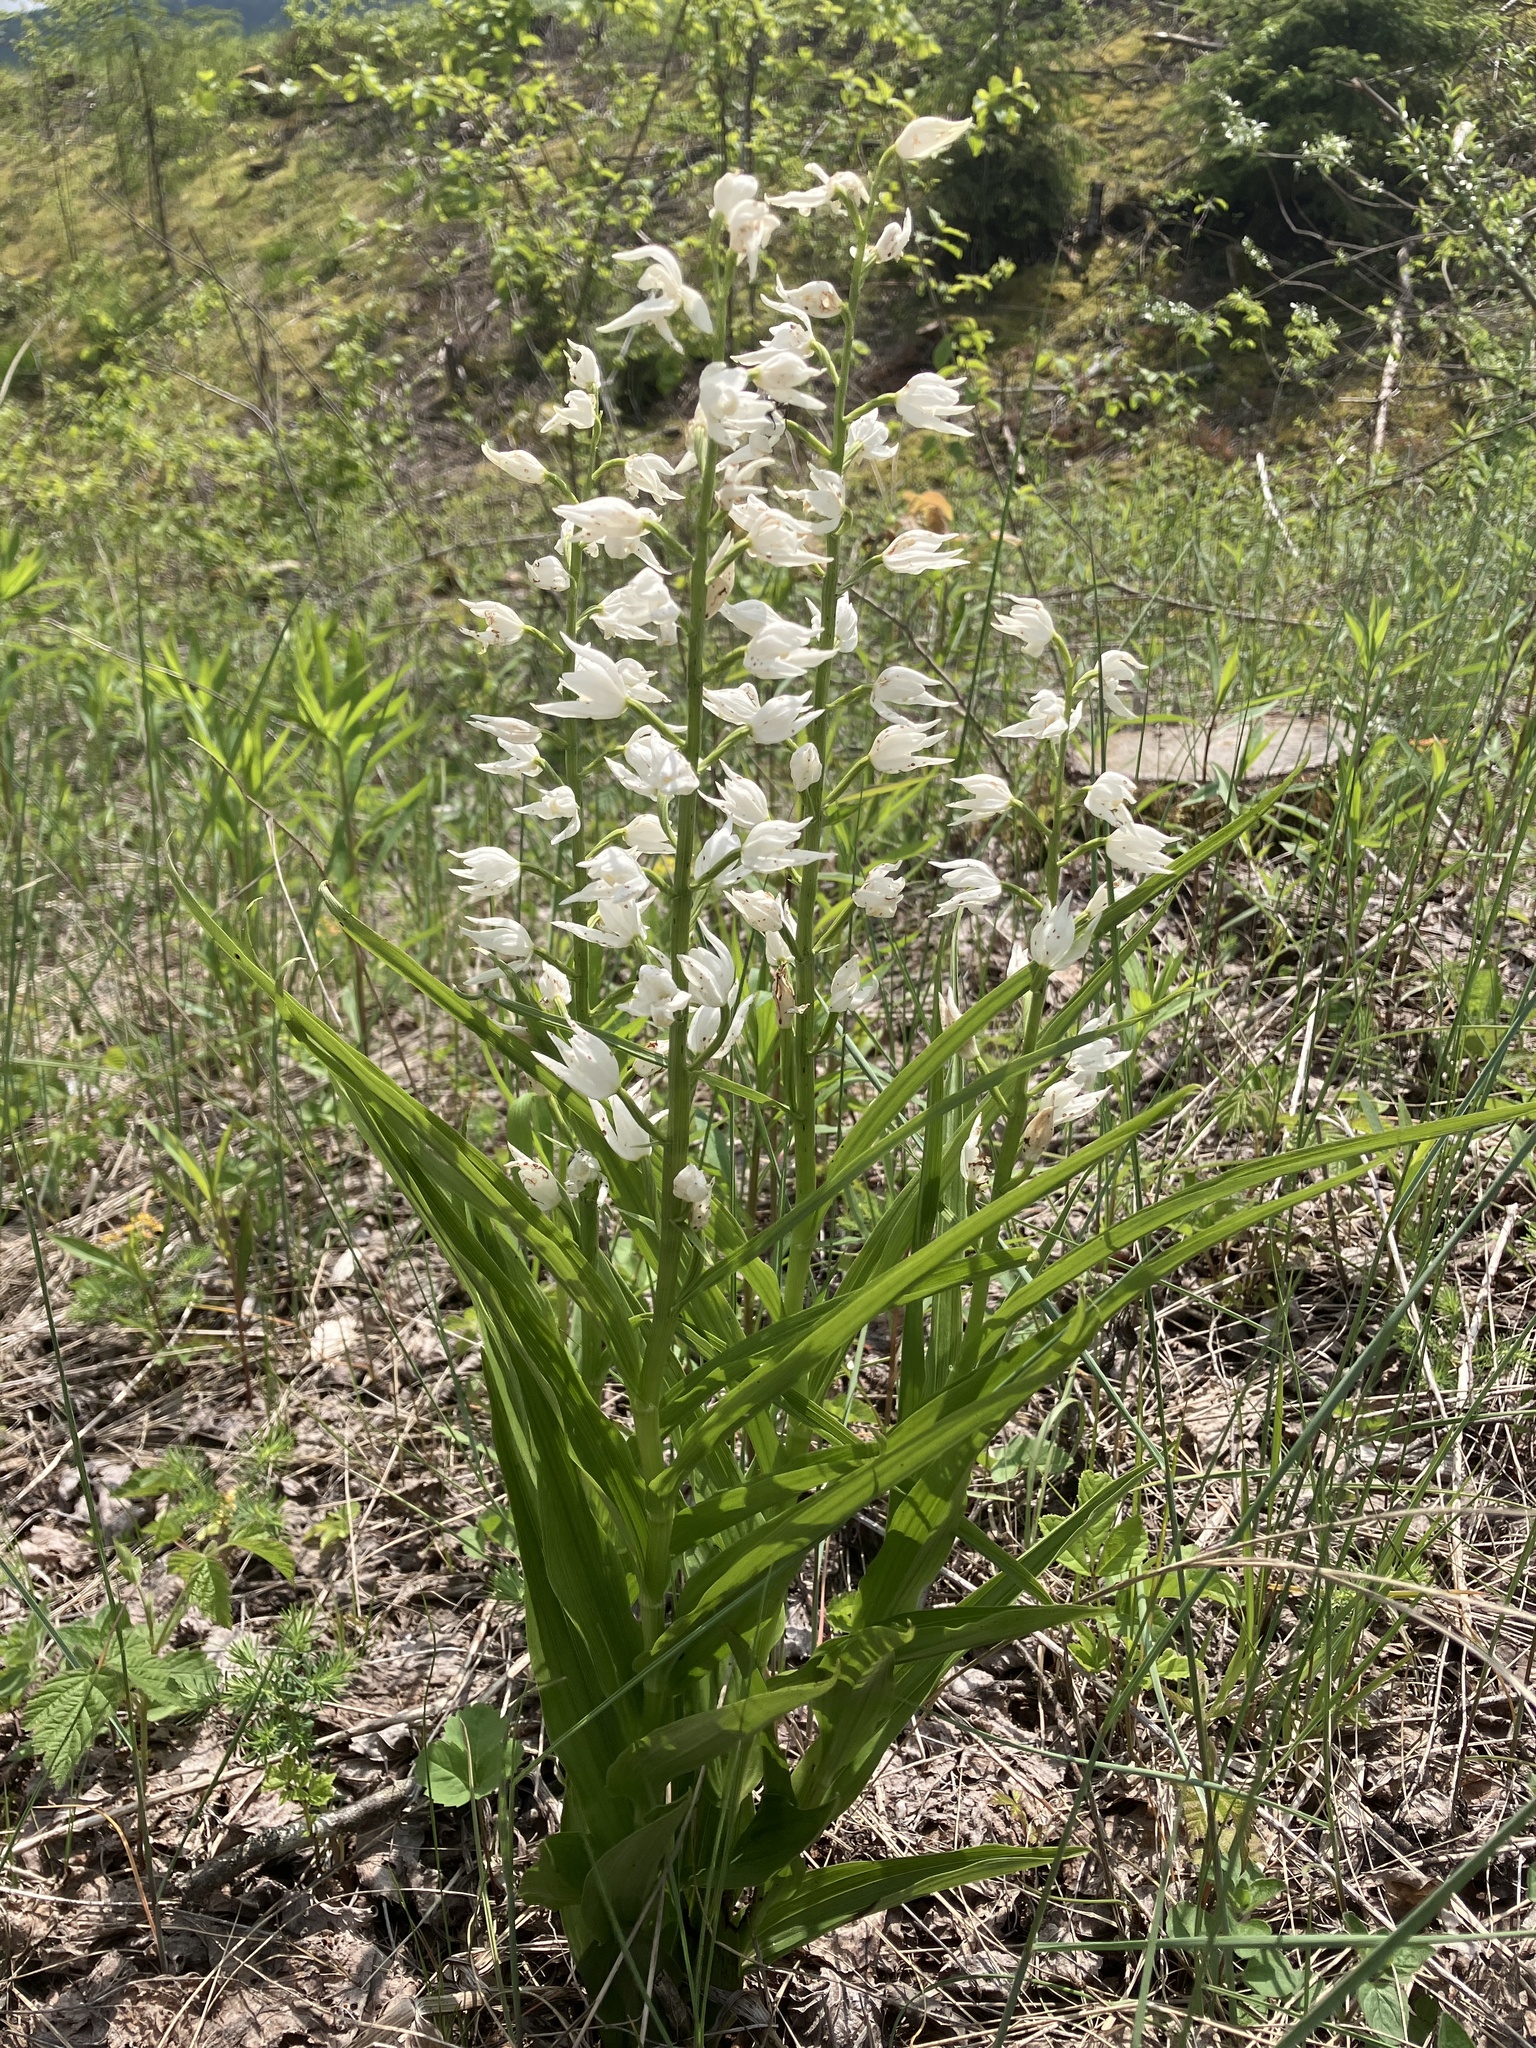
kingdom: Plantae
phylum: Tracheophyta
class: Liliopsida
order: Asparagales
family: Orchidaceae
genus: Cephalanthera
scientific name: Cephalanthera longifolia
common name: Narrow-leaved helleborine
